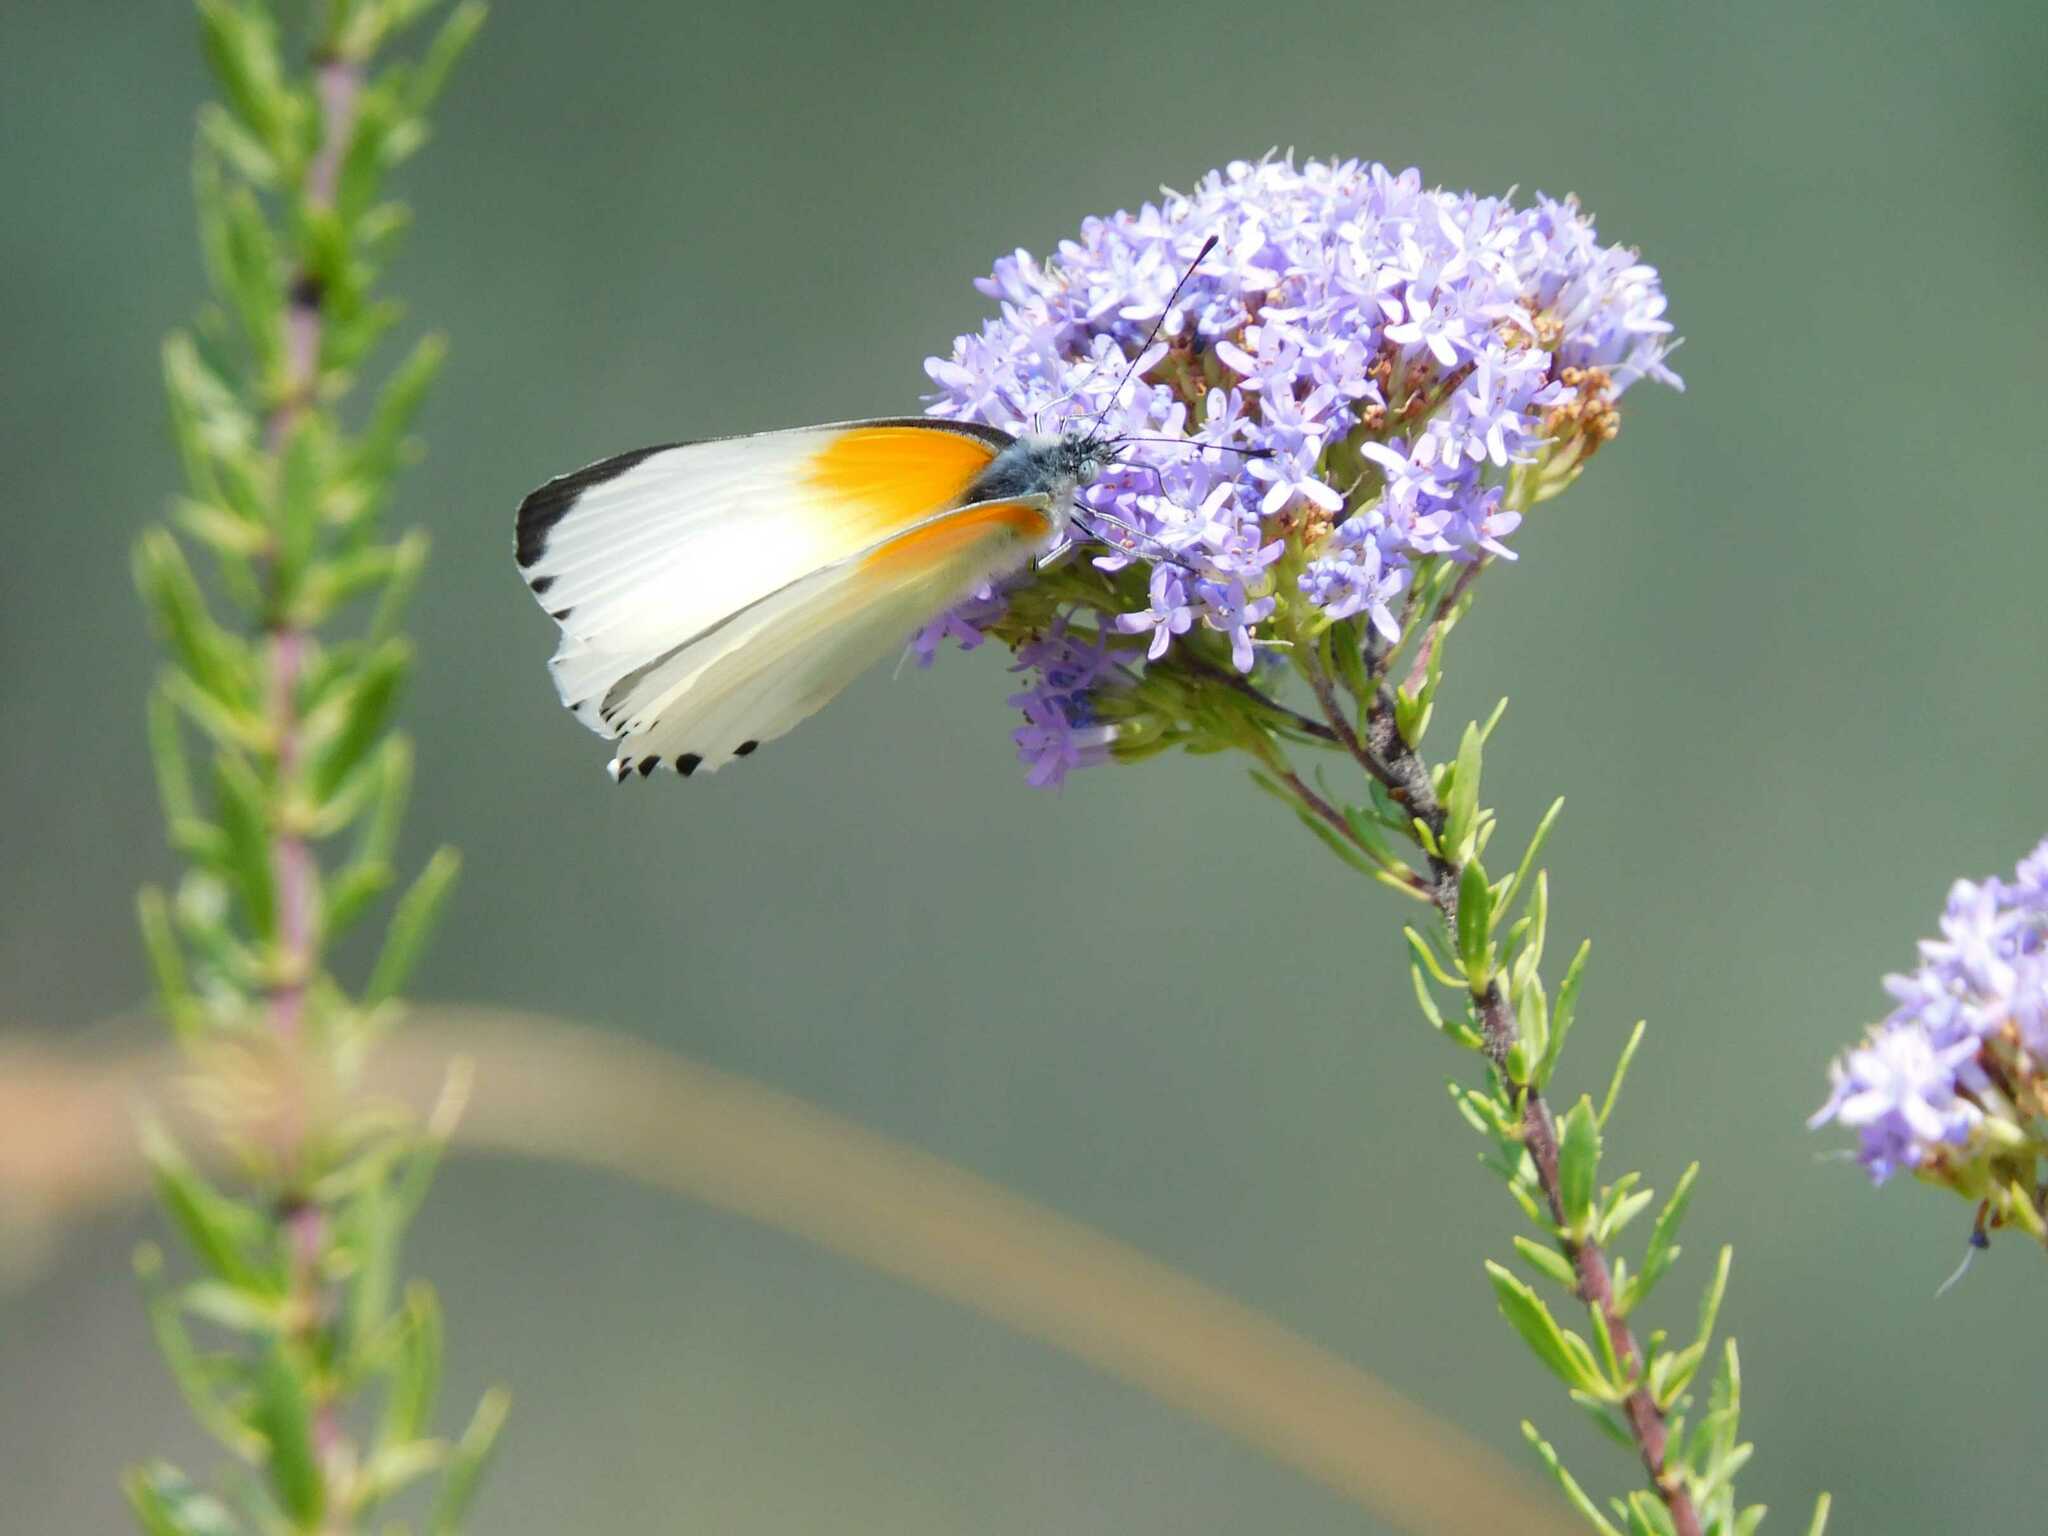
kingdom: Animalia
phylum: Arthropoda
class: Insecta
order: Lepidoptera
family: Pieridae
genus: Mylothris
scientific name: Mylothris rueppellii
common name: Twin dotted border
